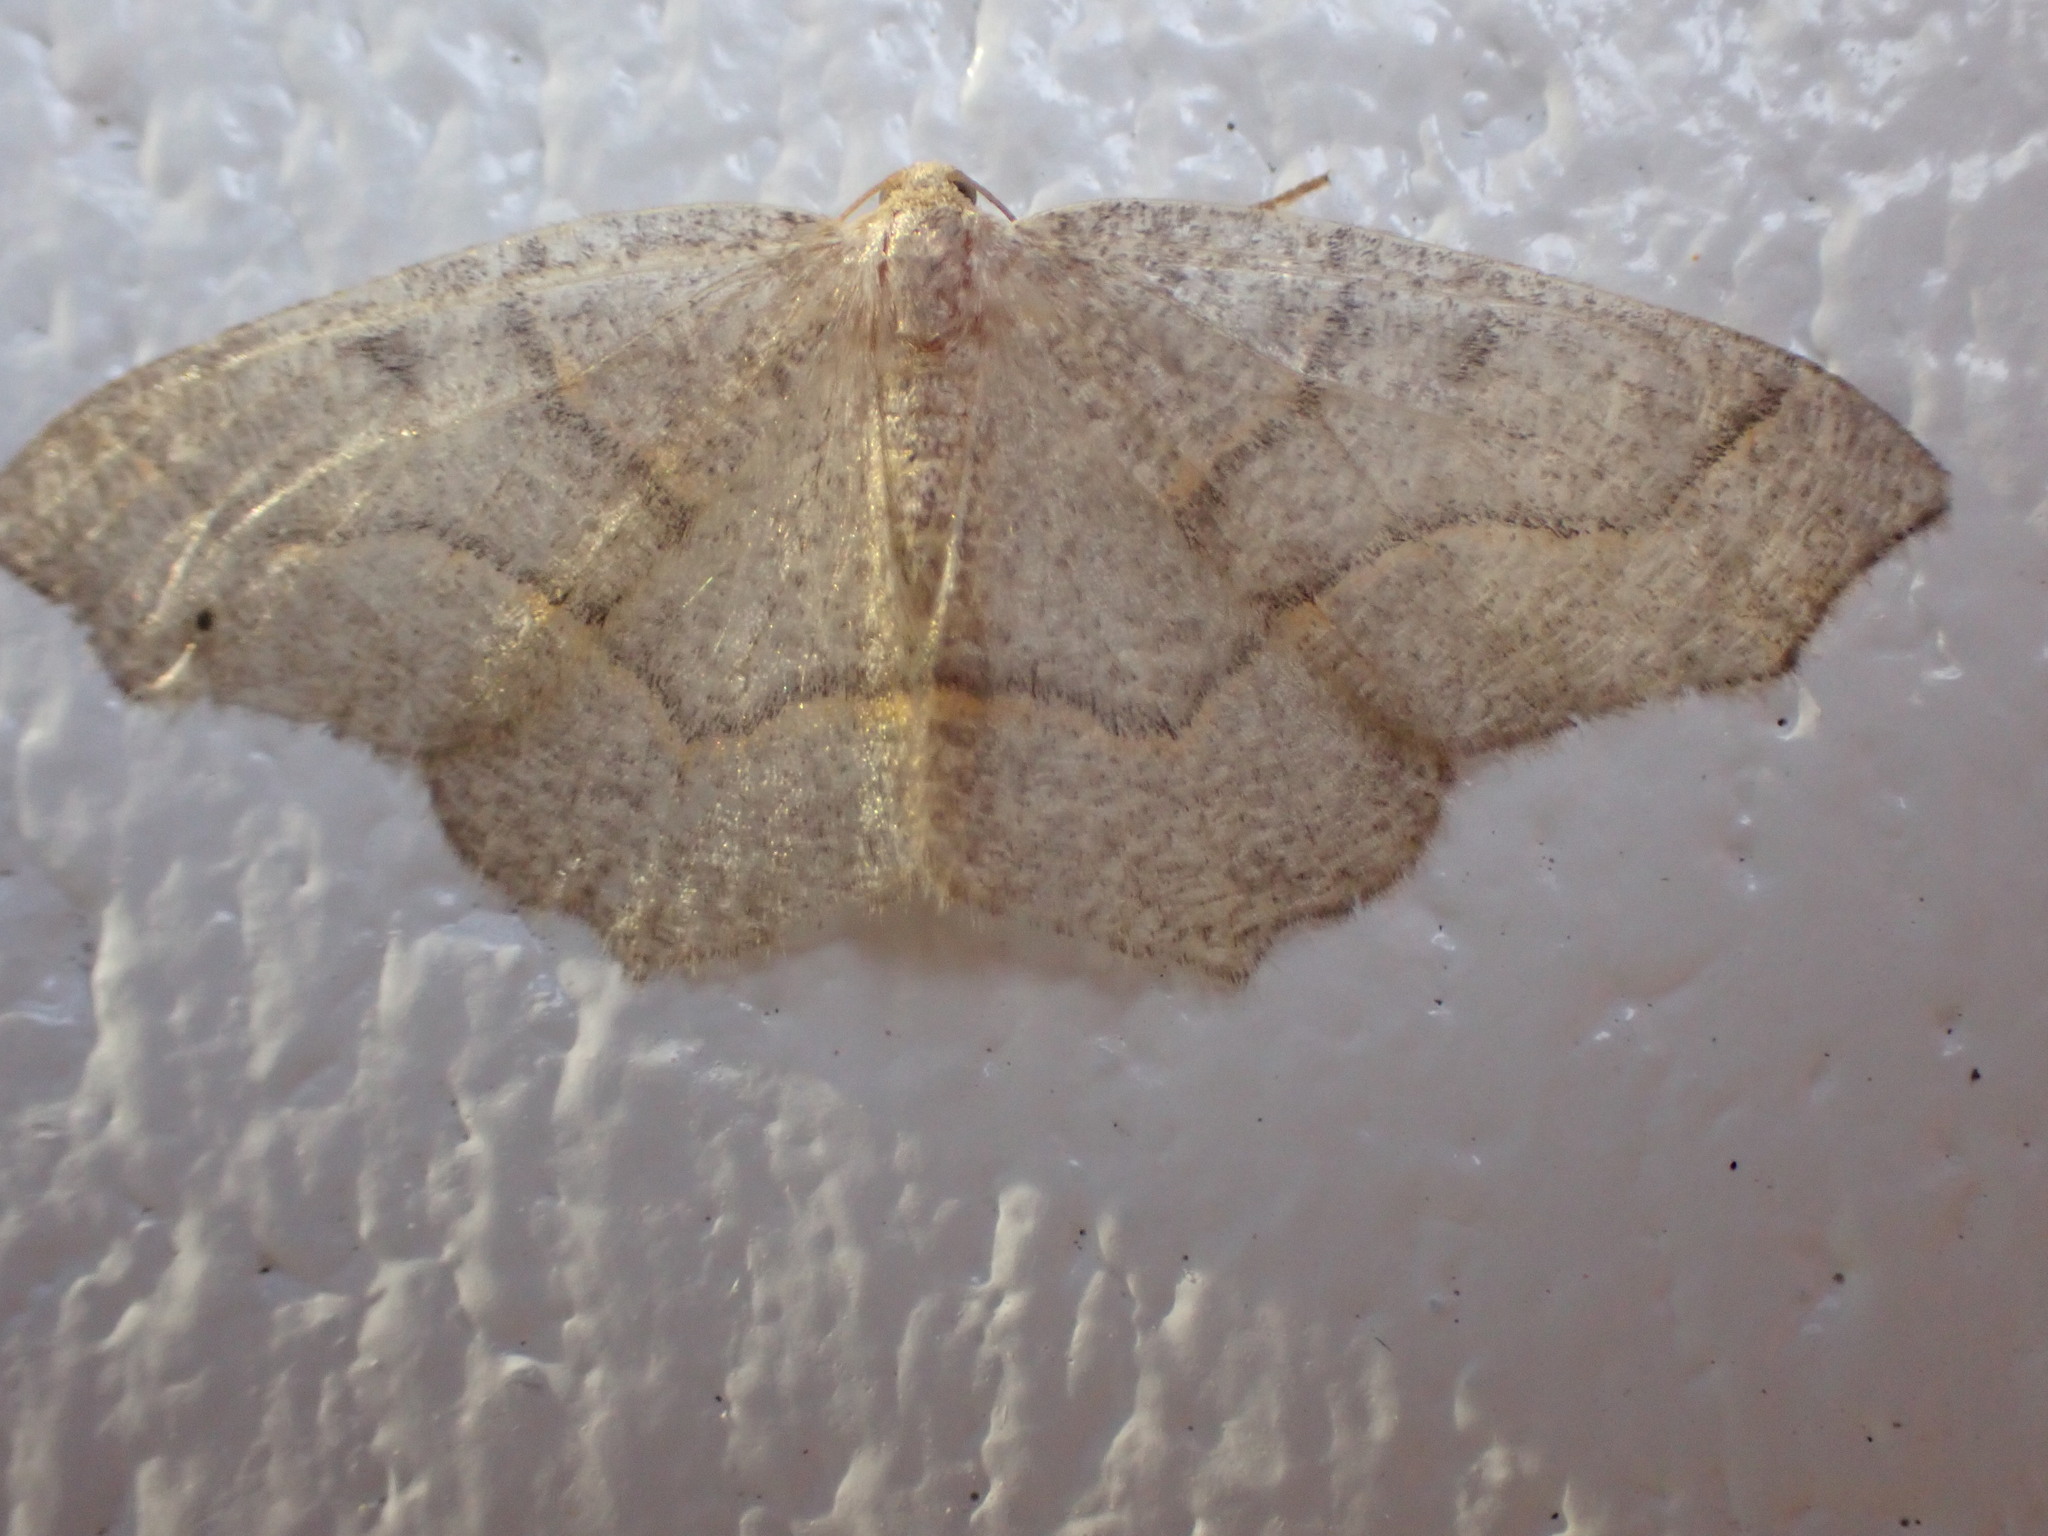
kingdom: Animalia
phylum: Arthropoda
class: Insecta
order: Lepidoptera
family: Geometridae
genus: Lambdina
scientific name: Lambdina fiscellaria
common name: Hemlock looper
